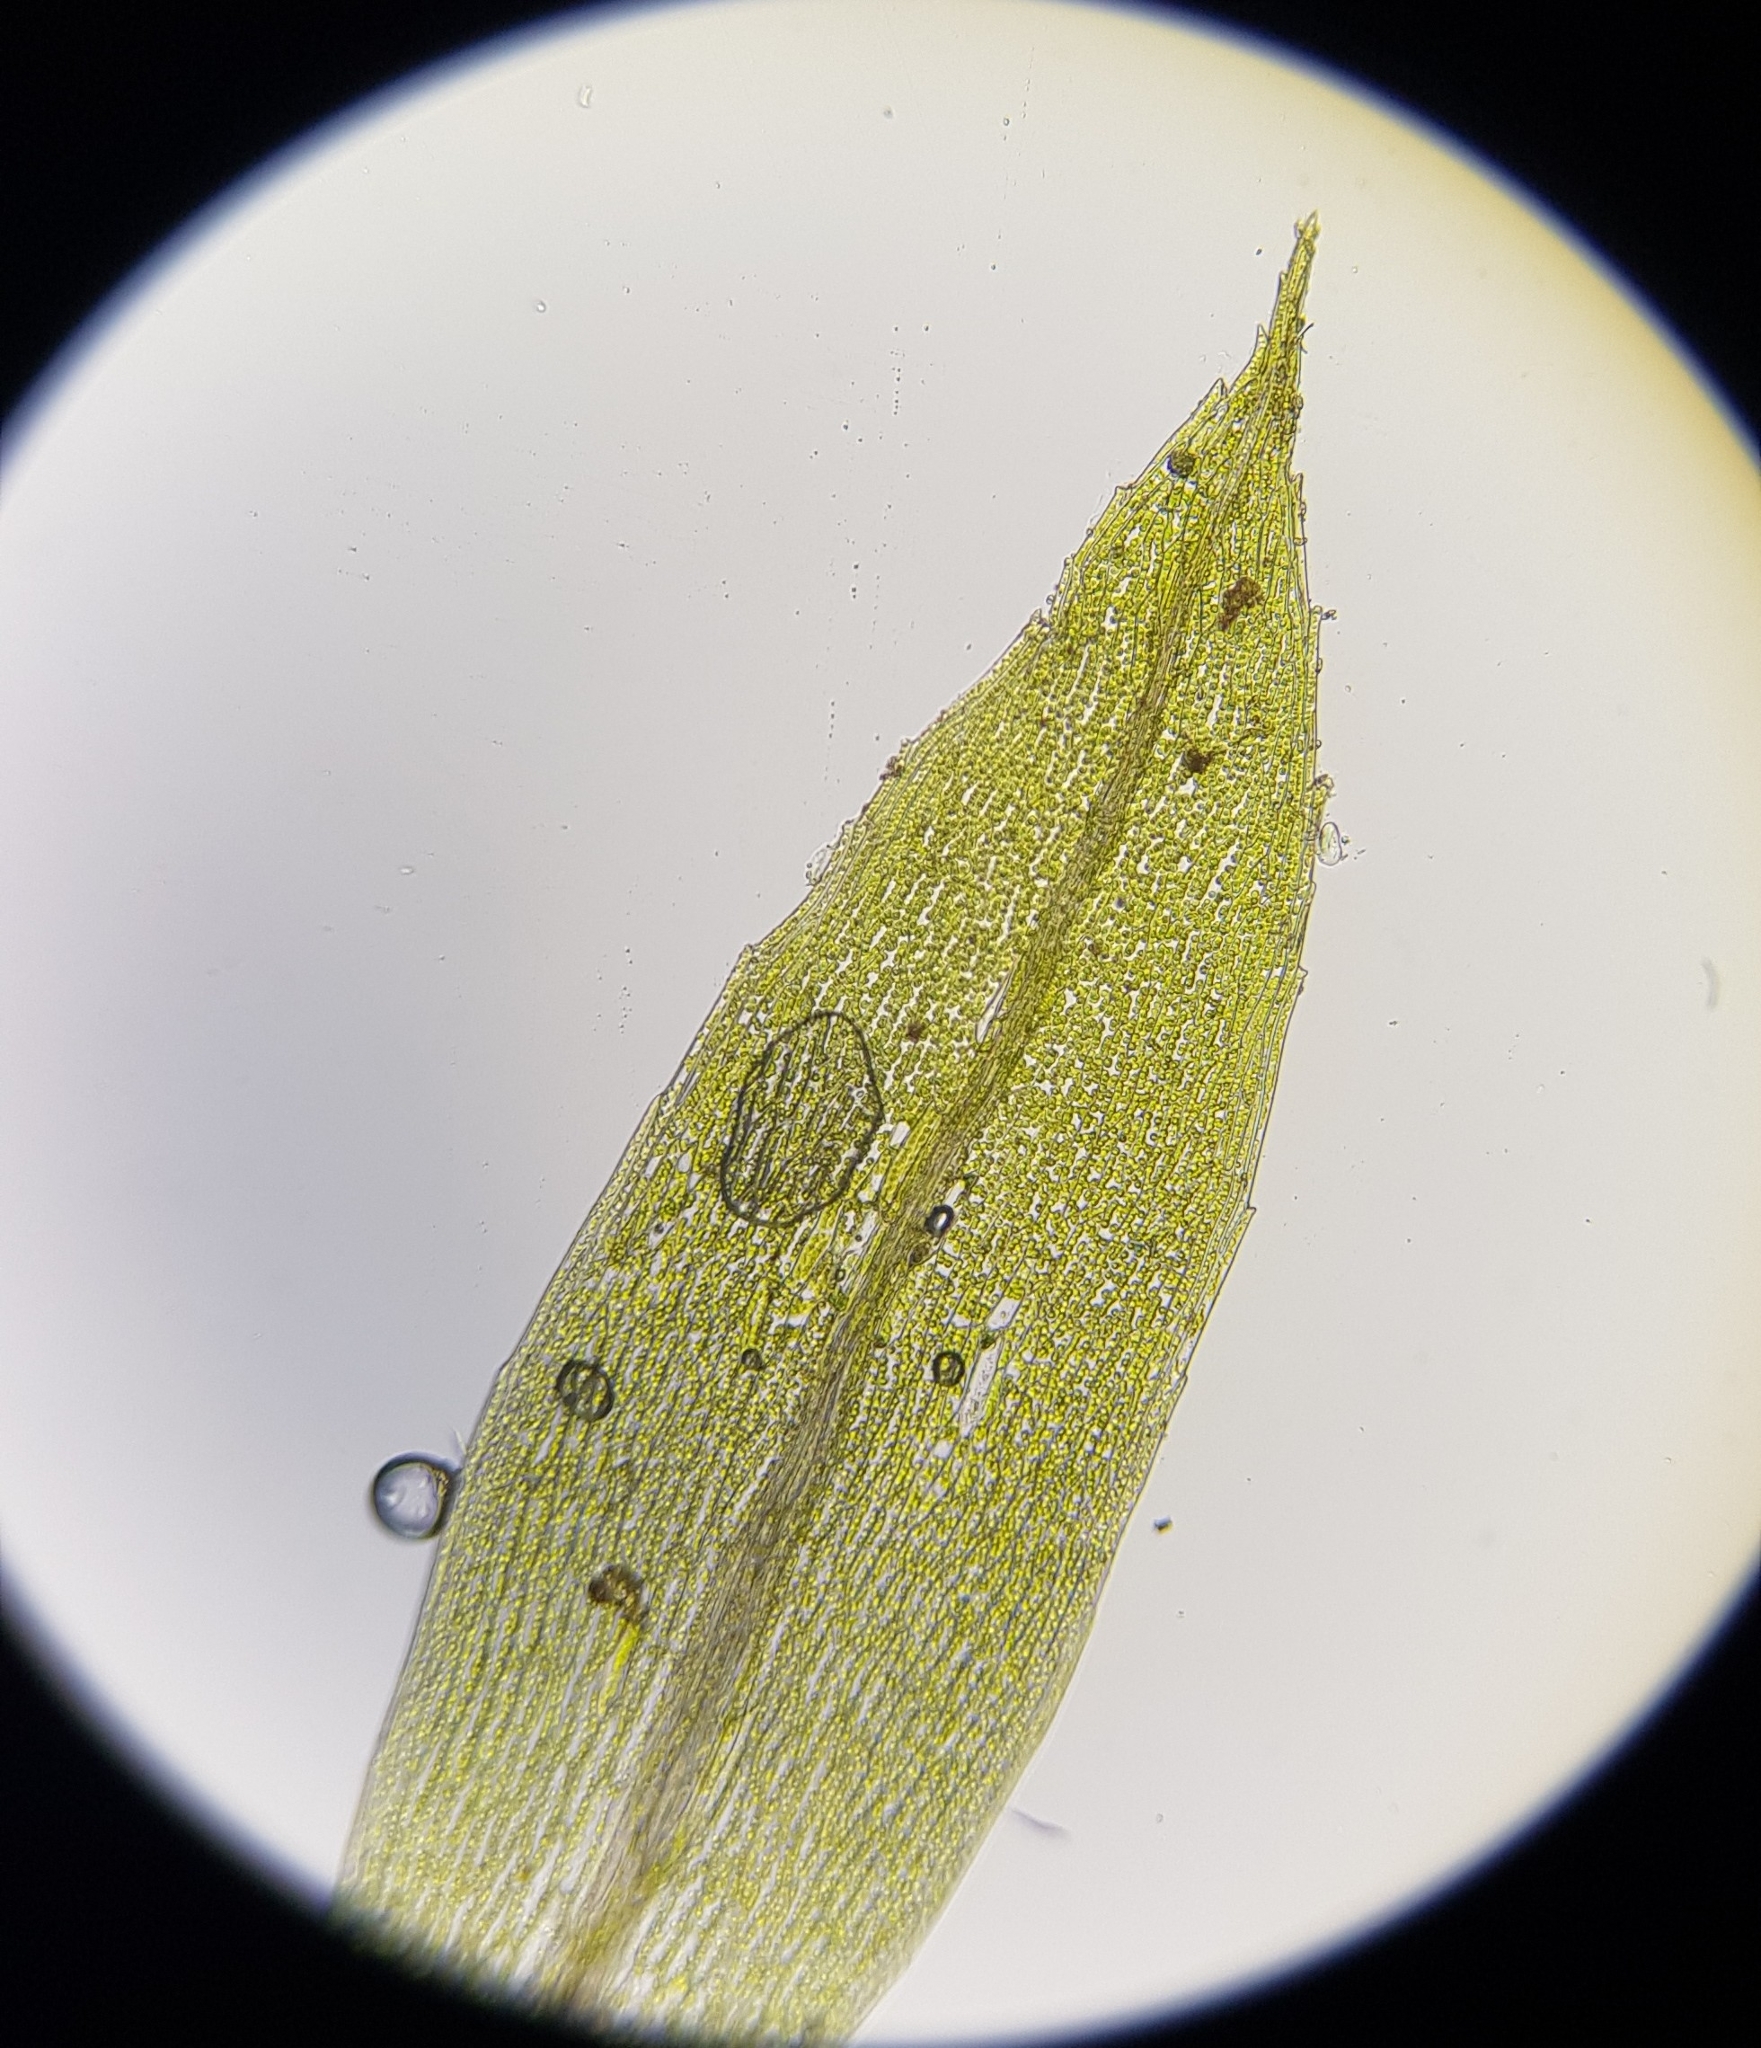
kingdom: Plantae
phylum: Bryophyta
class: Bryopsida
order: Dicranales
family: Ditrichaceae
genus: Pseudephemerum
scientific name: Pseudephemerum nitidum
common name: Delicate earth-moss
